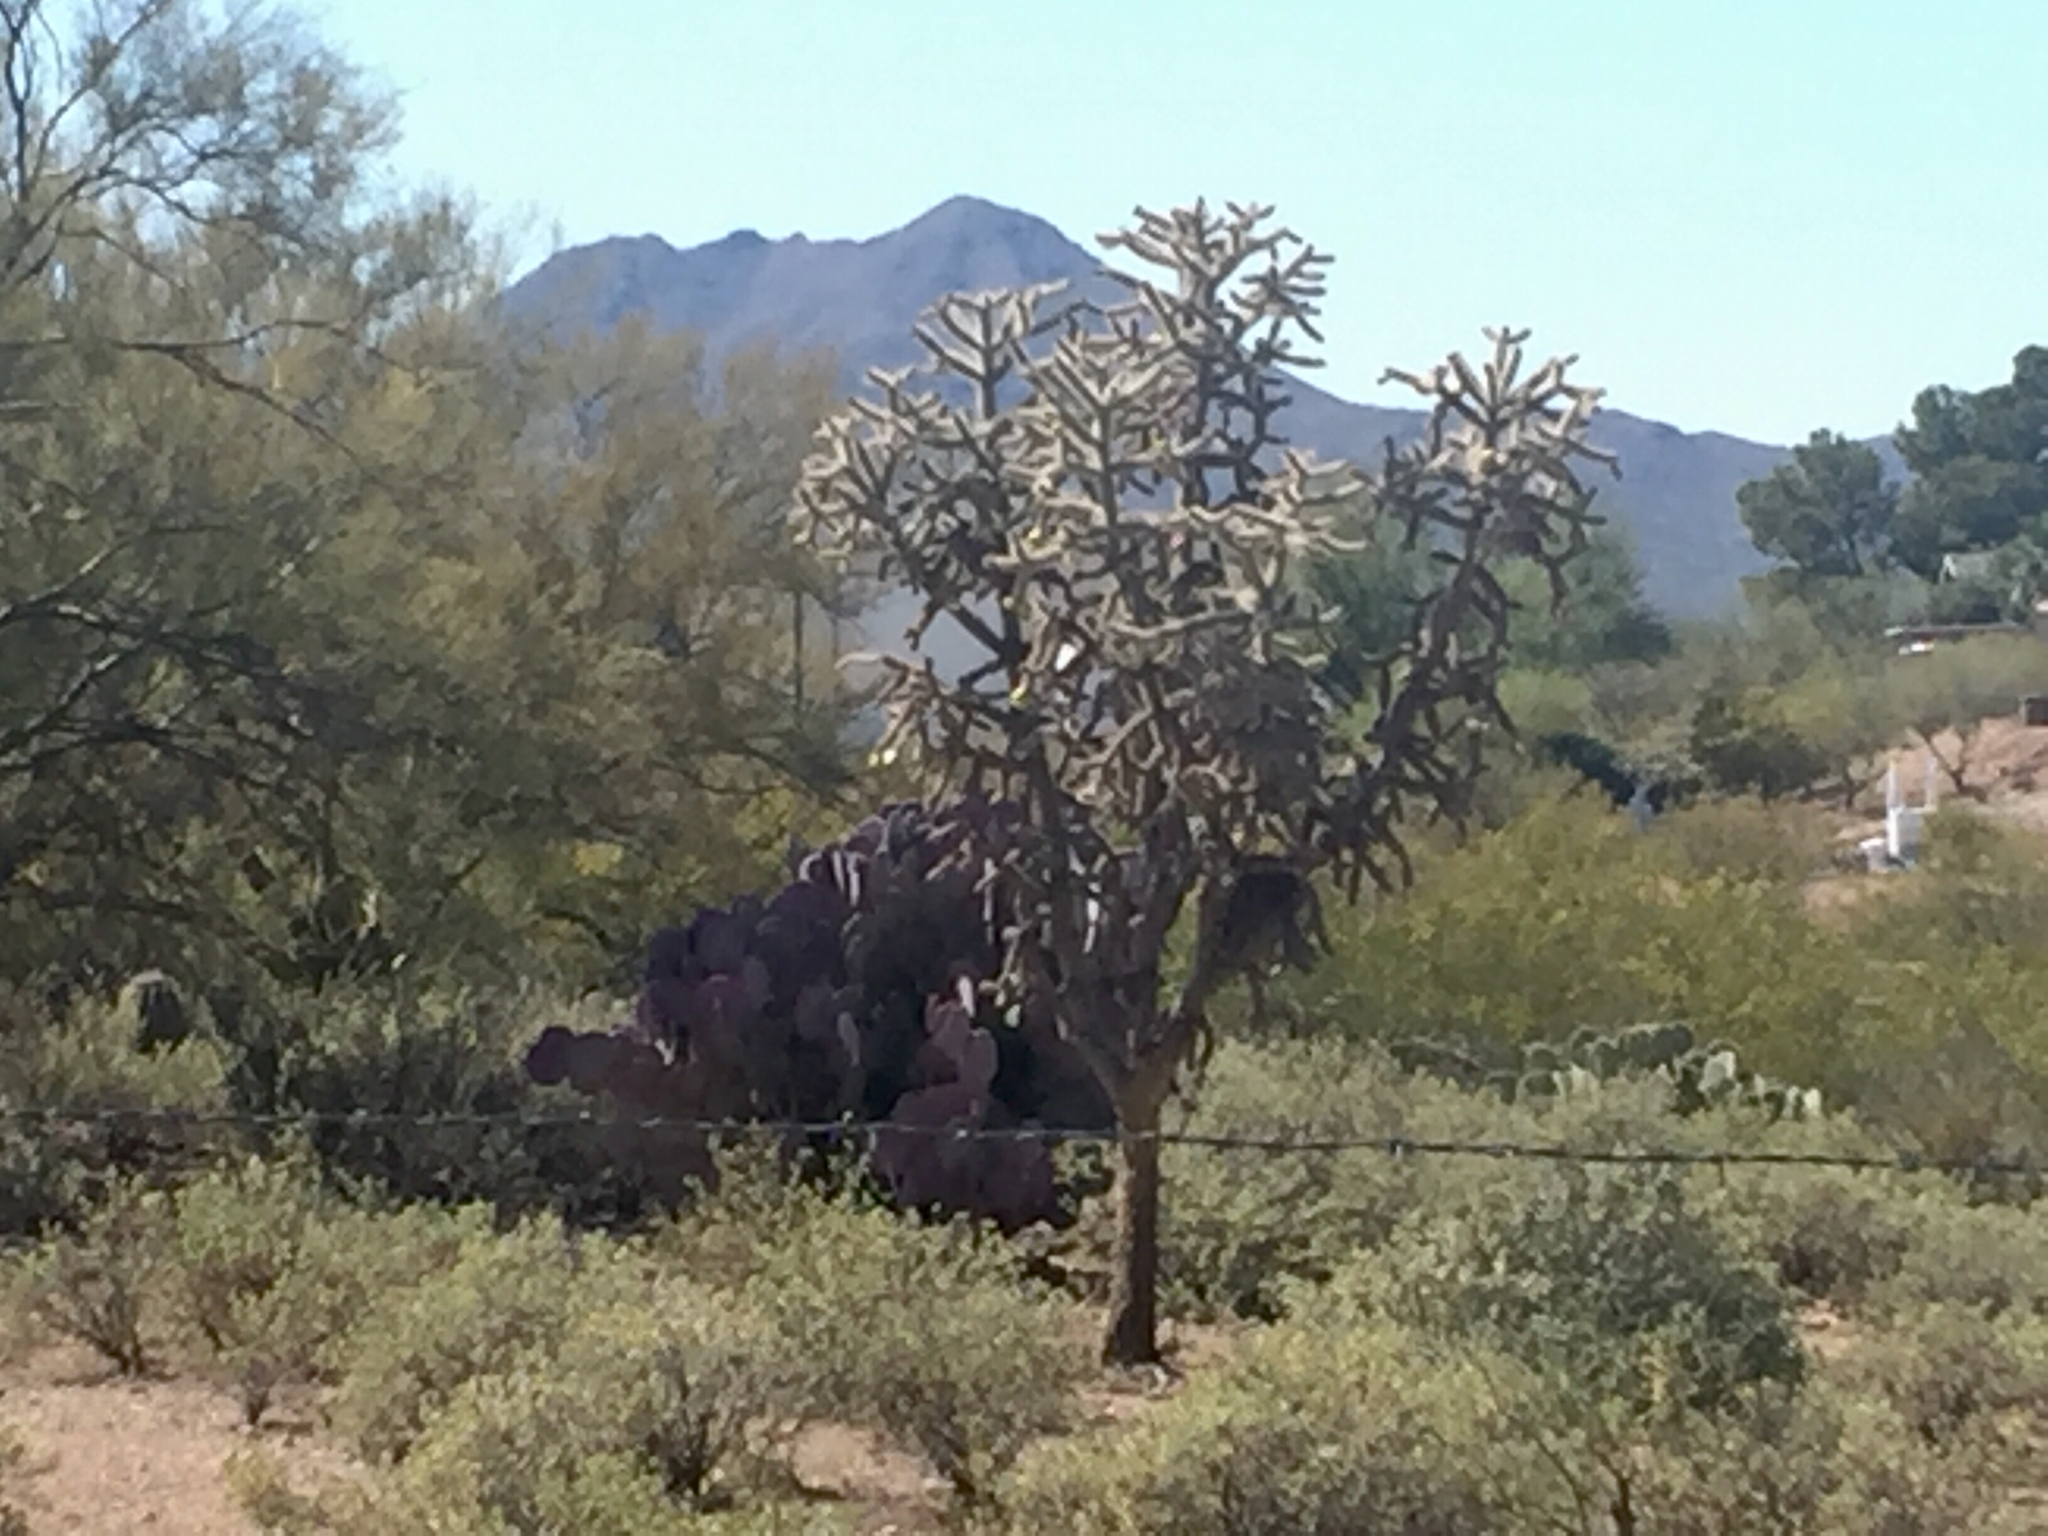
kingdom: Plantae
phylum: Tracheophyta
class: Magnoliopsida
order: Caryophyllales
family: Cactaceae
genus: Cylindropuntia
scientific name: Cylindropuntia imbricata
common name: Candelabrum cactus
